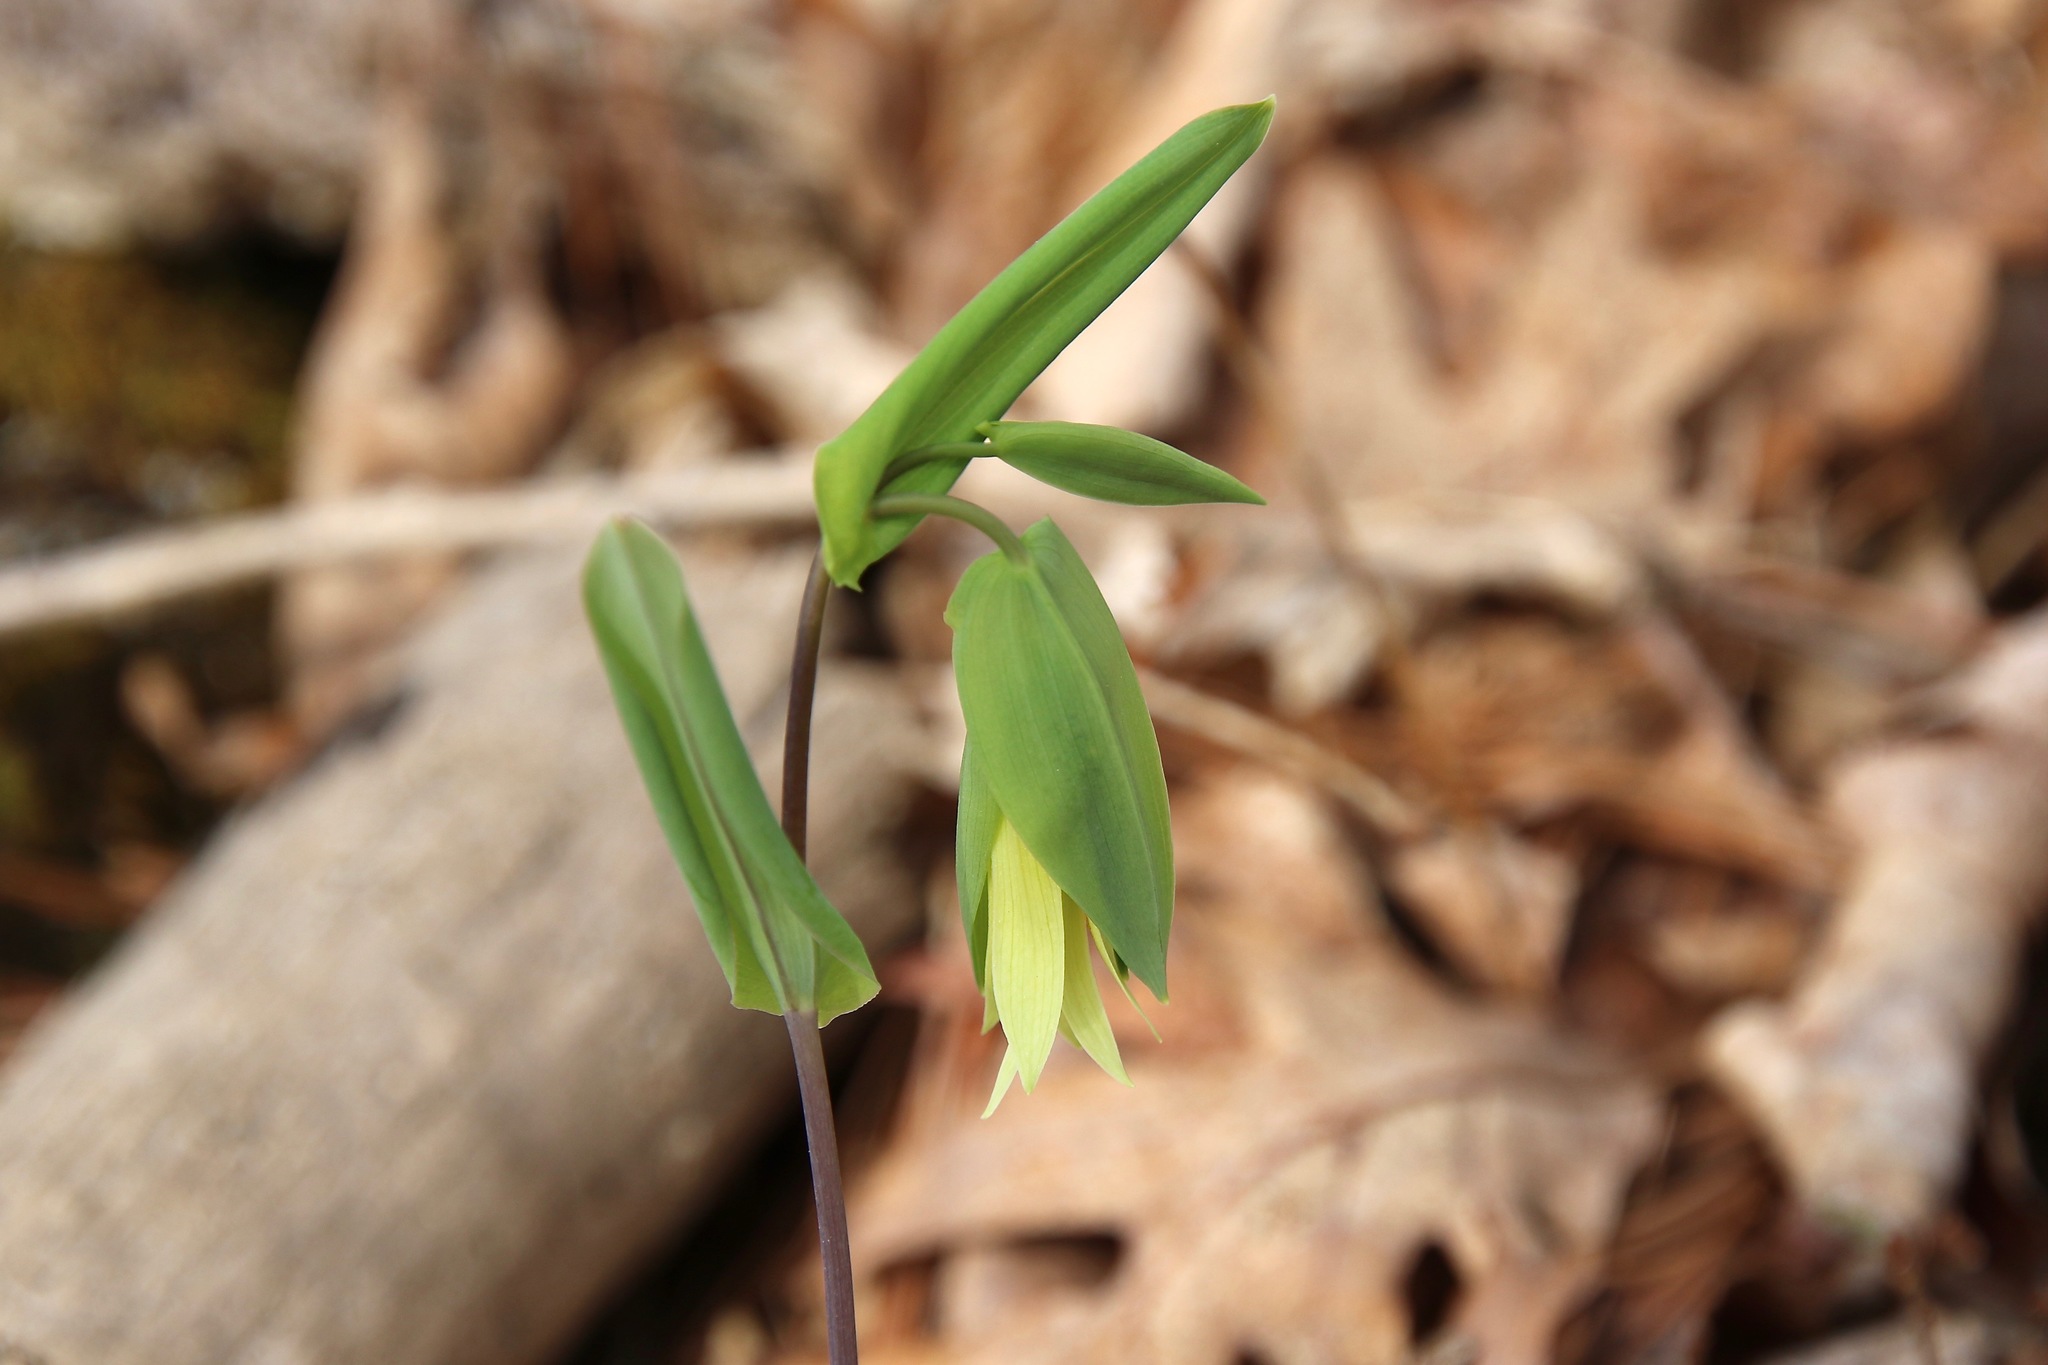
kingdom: Plantae
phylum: Tracheophyta
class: Liliopsida
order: Liliales
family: Colchicaceae
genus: Uvularia
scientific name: Uvularia perfoliata
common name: Perfoliate bellwort
